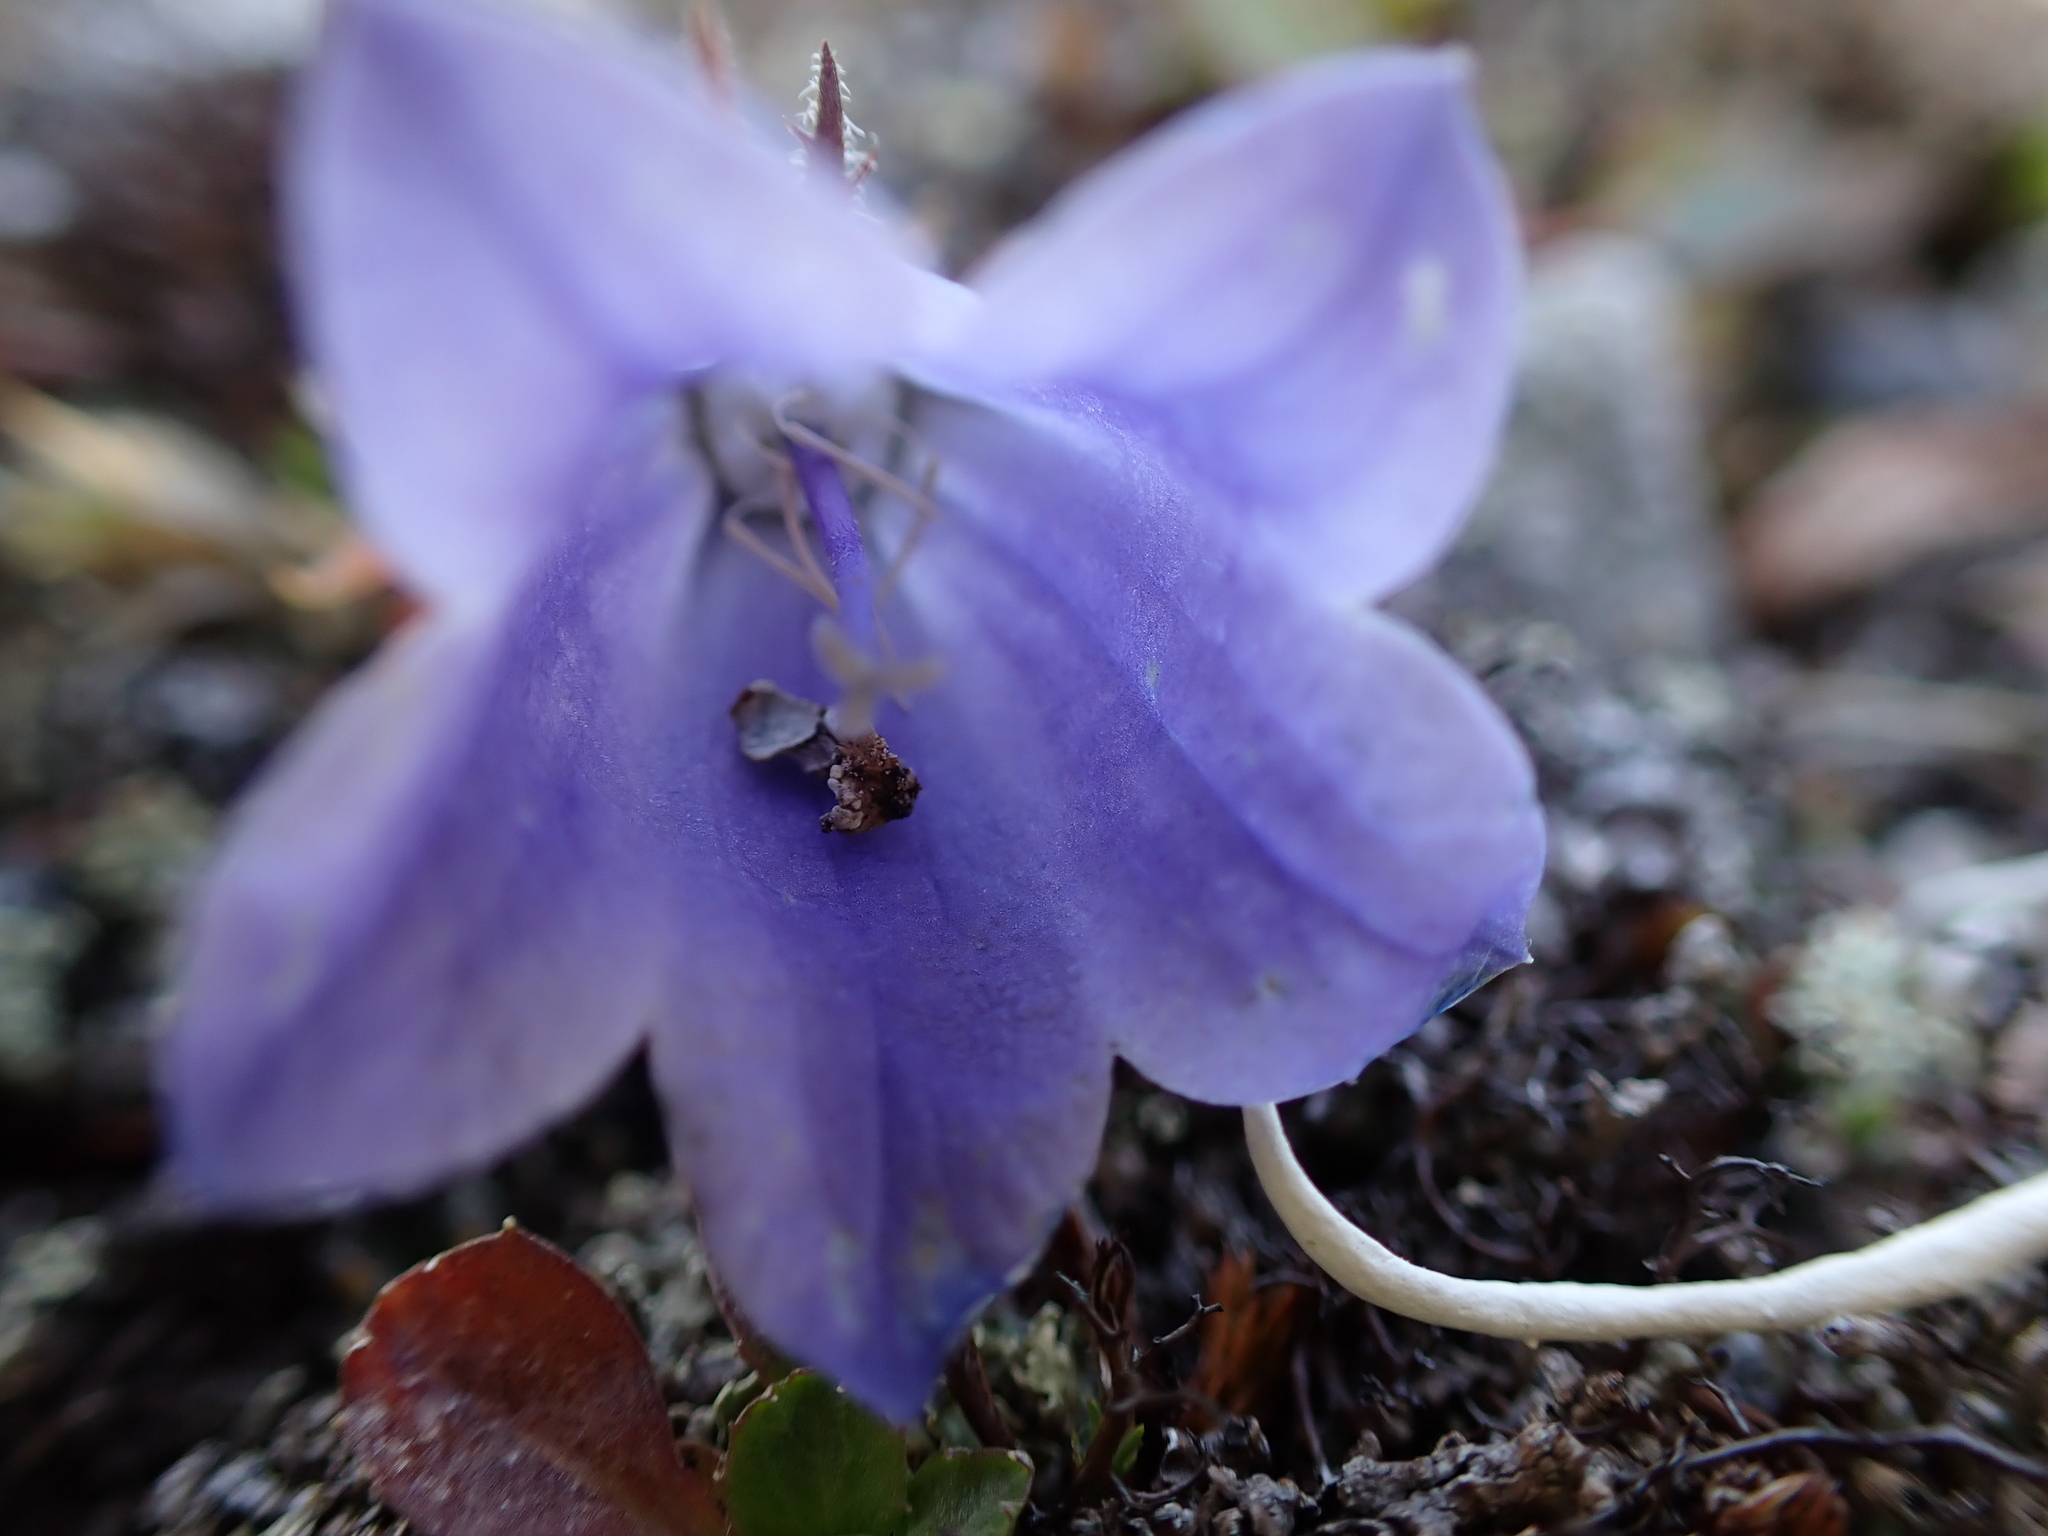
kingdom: Plantae
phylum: Tracheophyta
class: Magnoliopsida
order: Asterales
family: Campanulaceae
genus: Campanula
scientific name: Campanula lasiocarpa
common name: Mountain harebell
